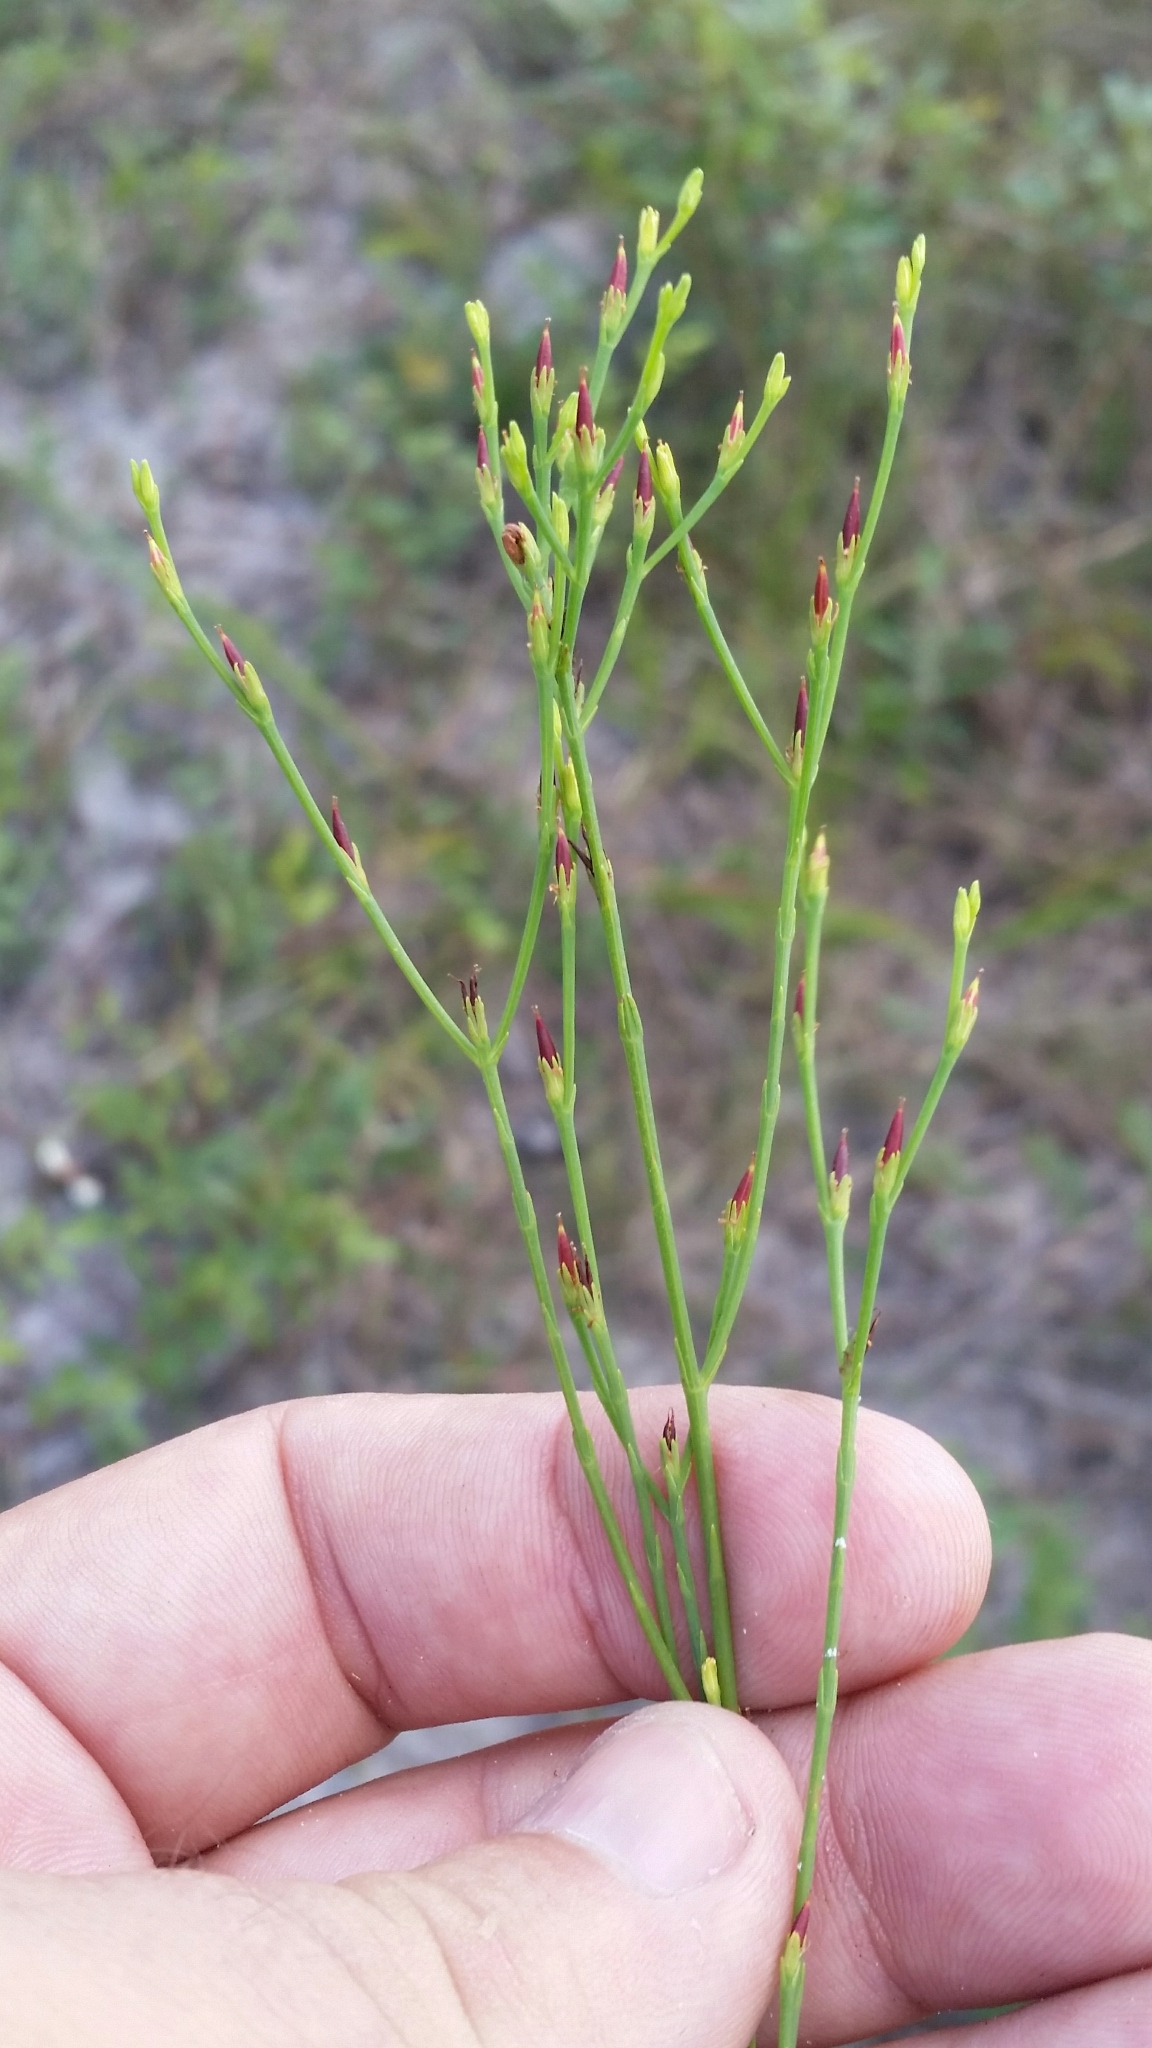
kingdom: Plantae
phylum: Tracheophyta
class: Magnoliopsida
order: Malpighiales
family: Hypericaceae
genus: Hypericum
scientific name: Hypericum gentianoides
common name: Gentian-leaved st. john's-wort
